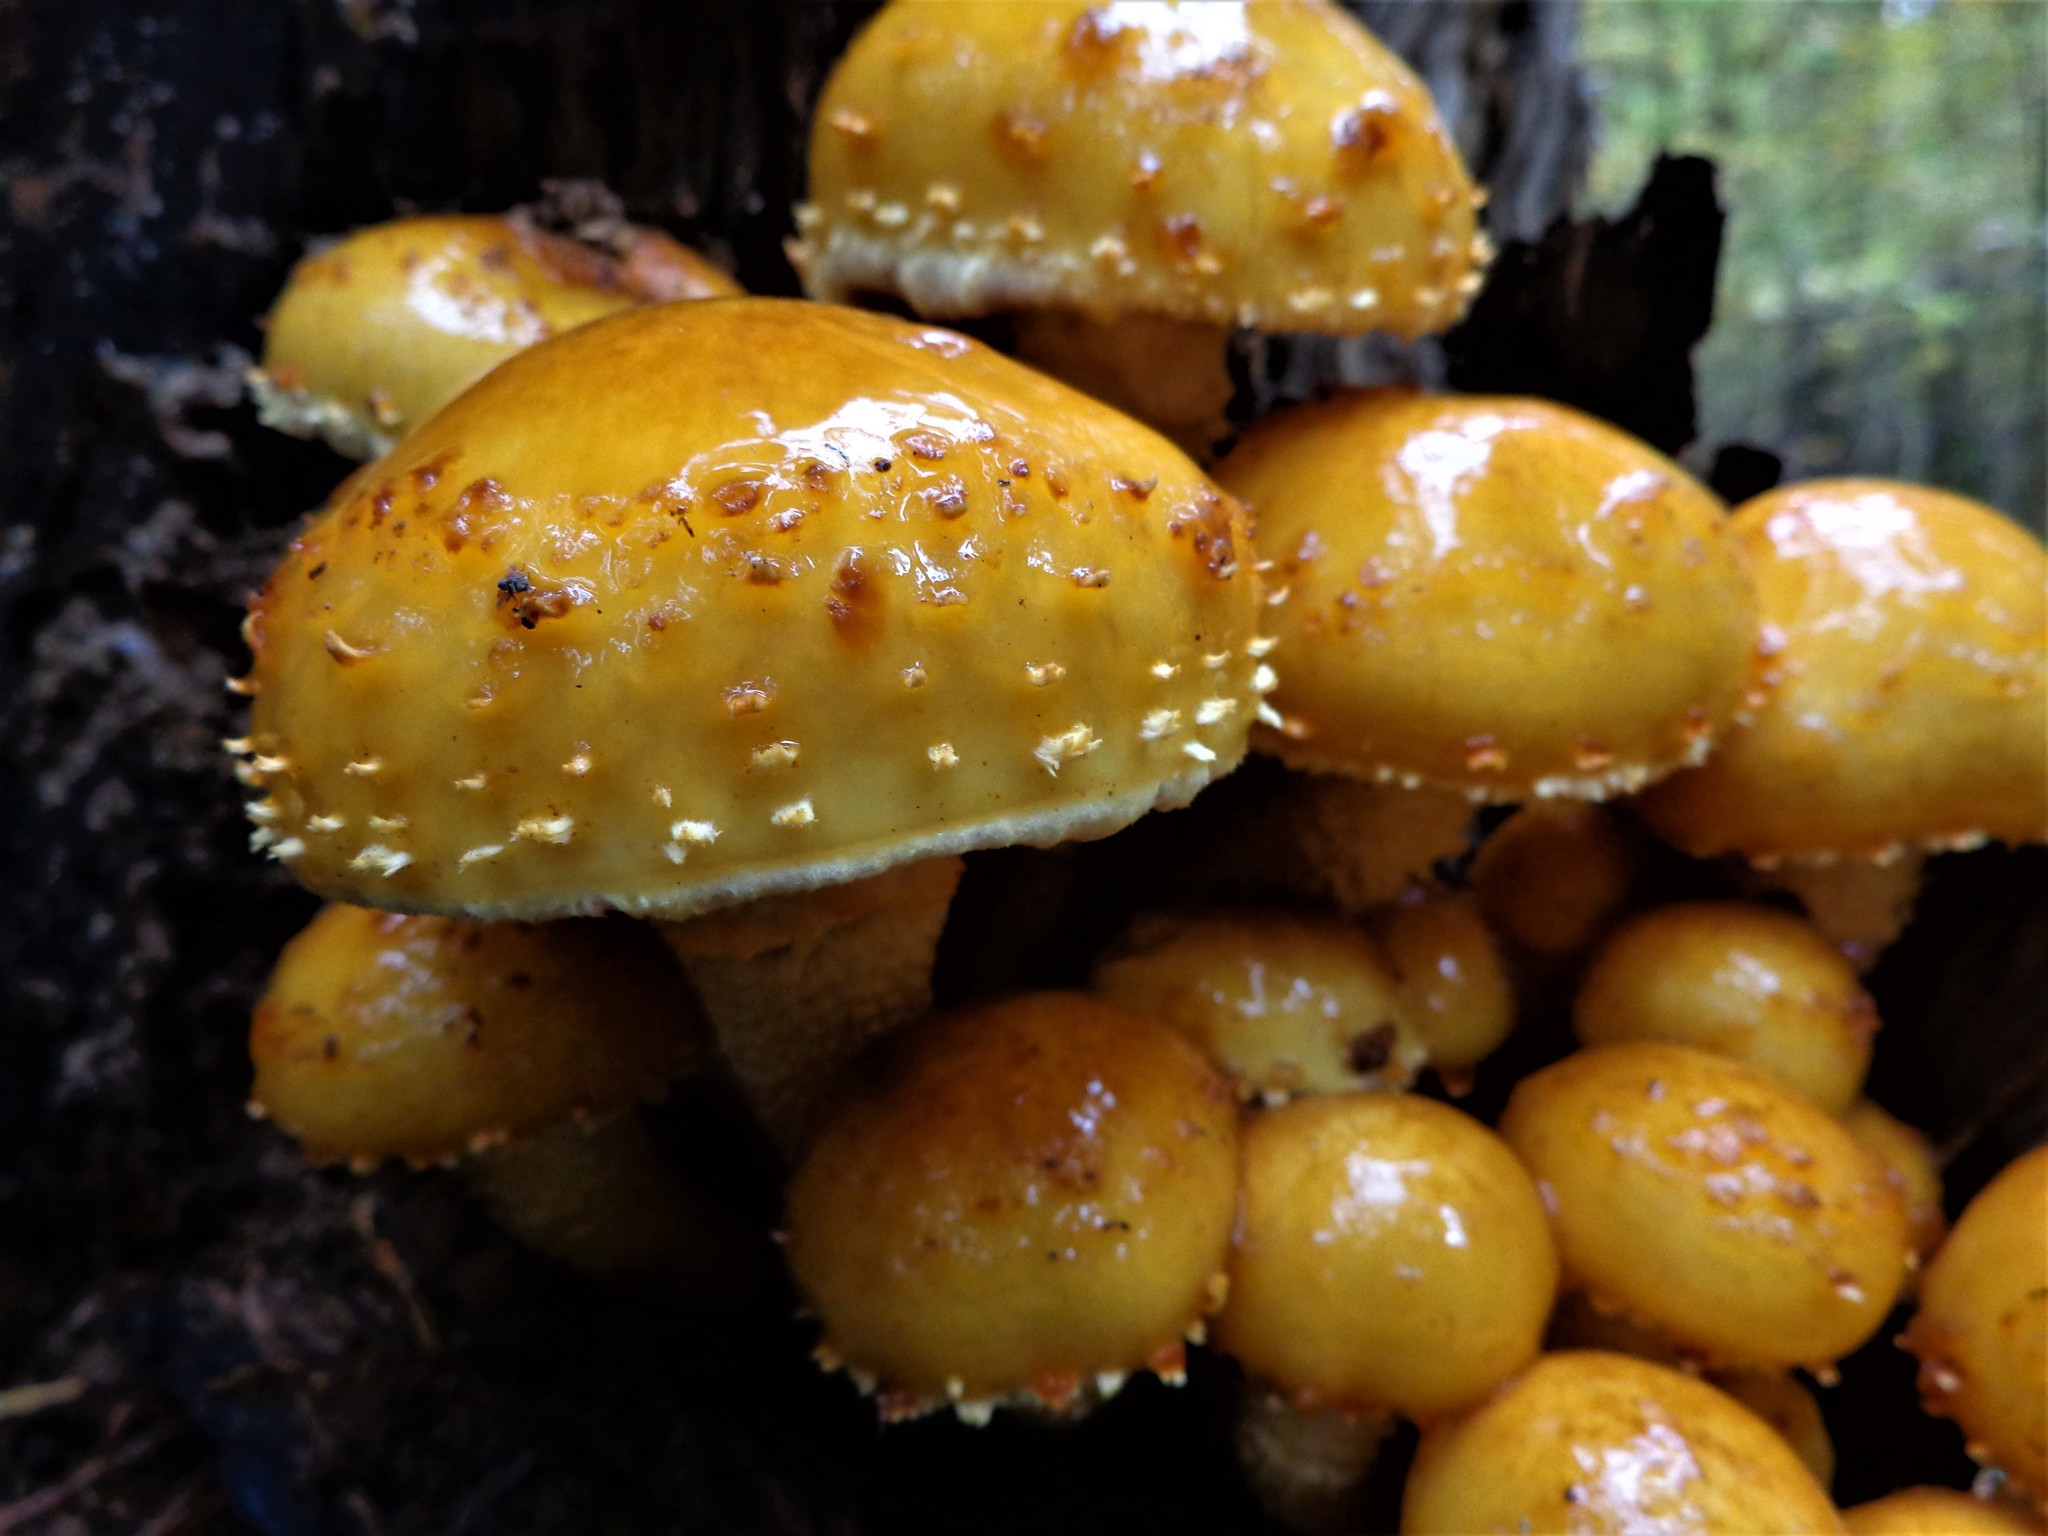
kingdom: Fungi
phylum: Basidiomycota
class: Agaricomycetes
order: Agaricales
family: Strophariaceae
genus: Pholiota
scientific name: Pholiota aurivella
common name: Golden scalycap
